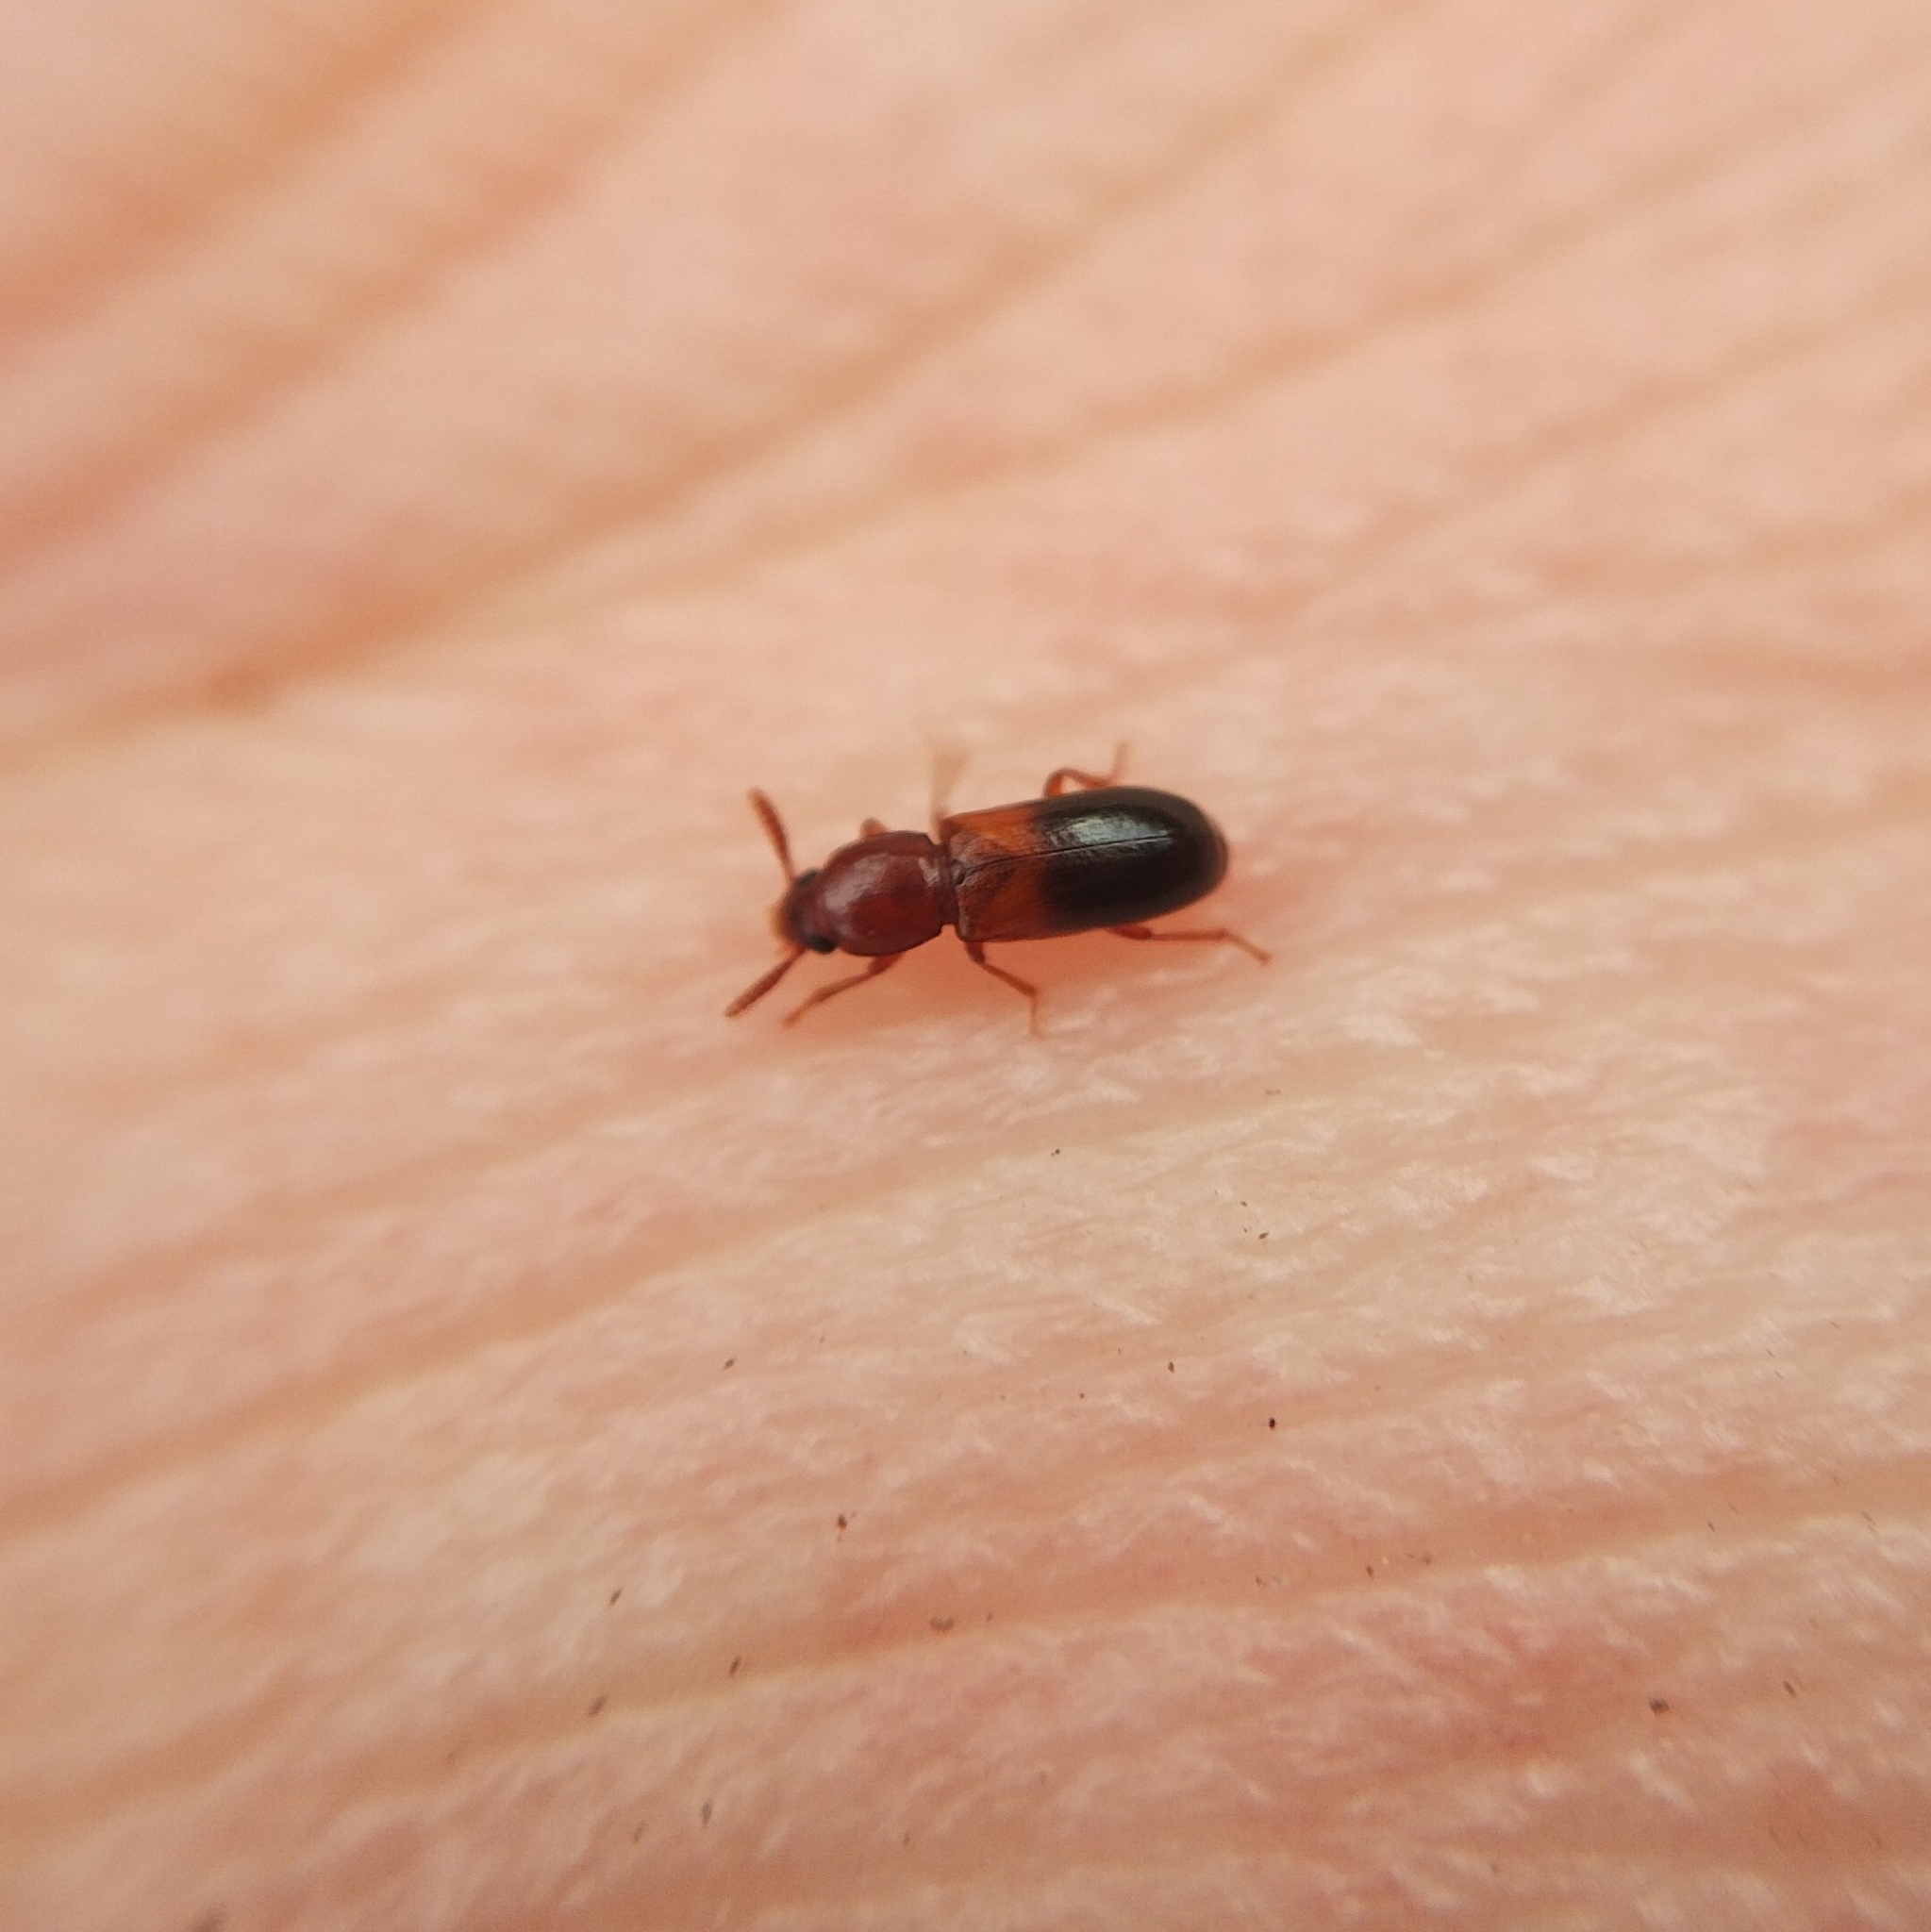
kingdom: Animalia
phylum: Arthropoda
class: Insecta
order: Coleoptera
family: Tenebrionidae
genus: Corticeus
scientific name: Corticeus bicolor
